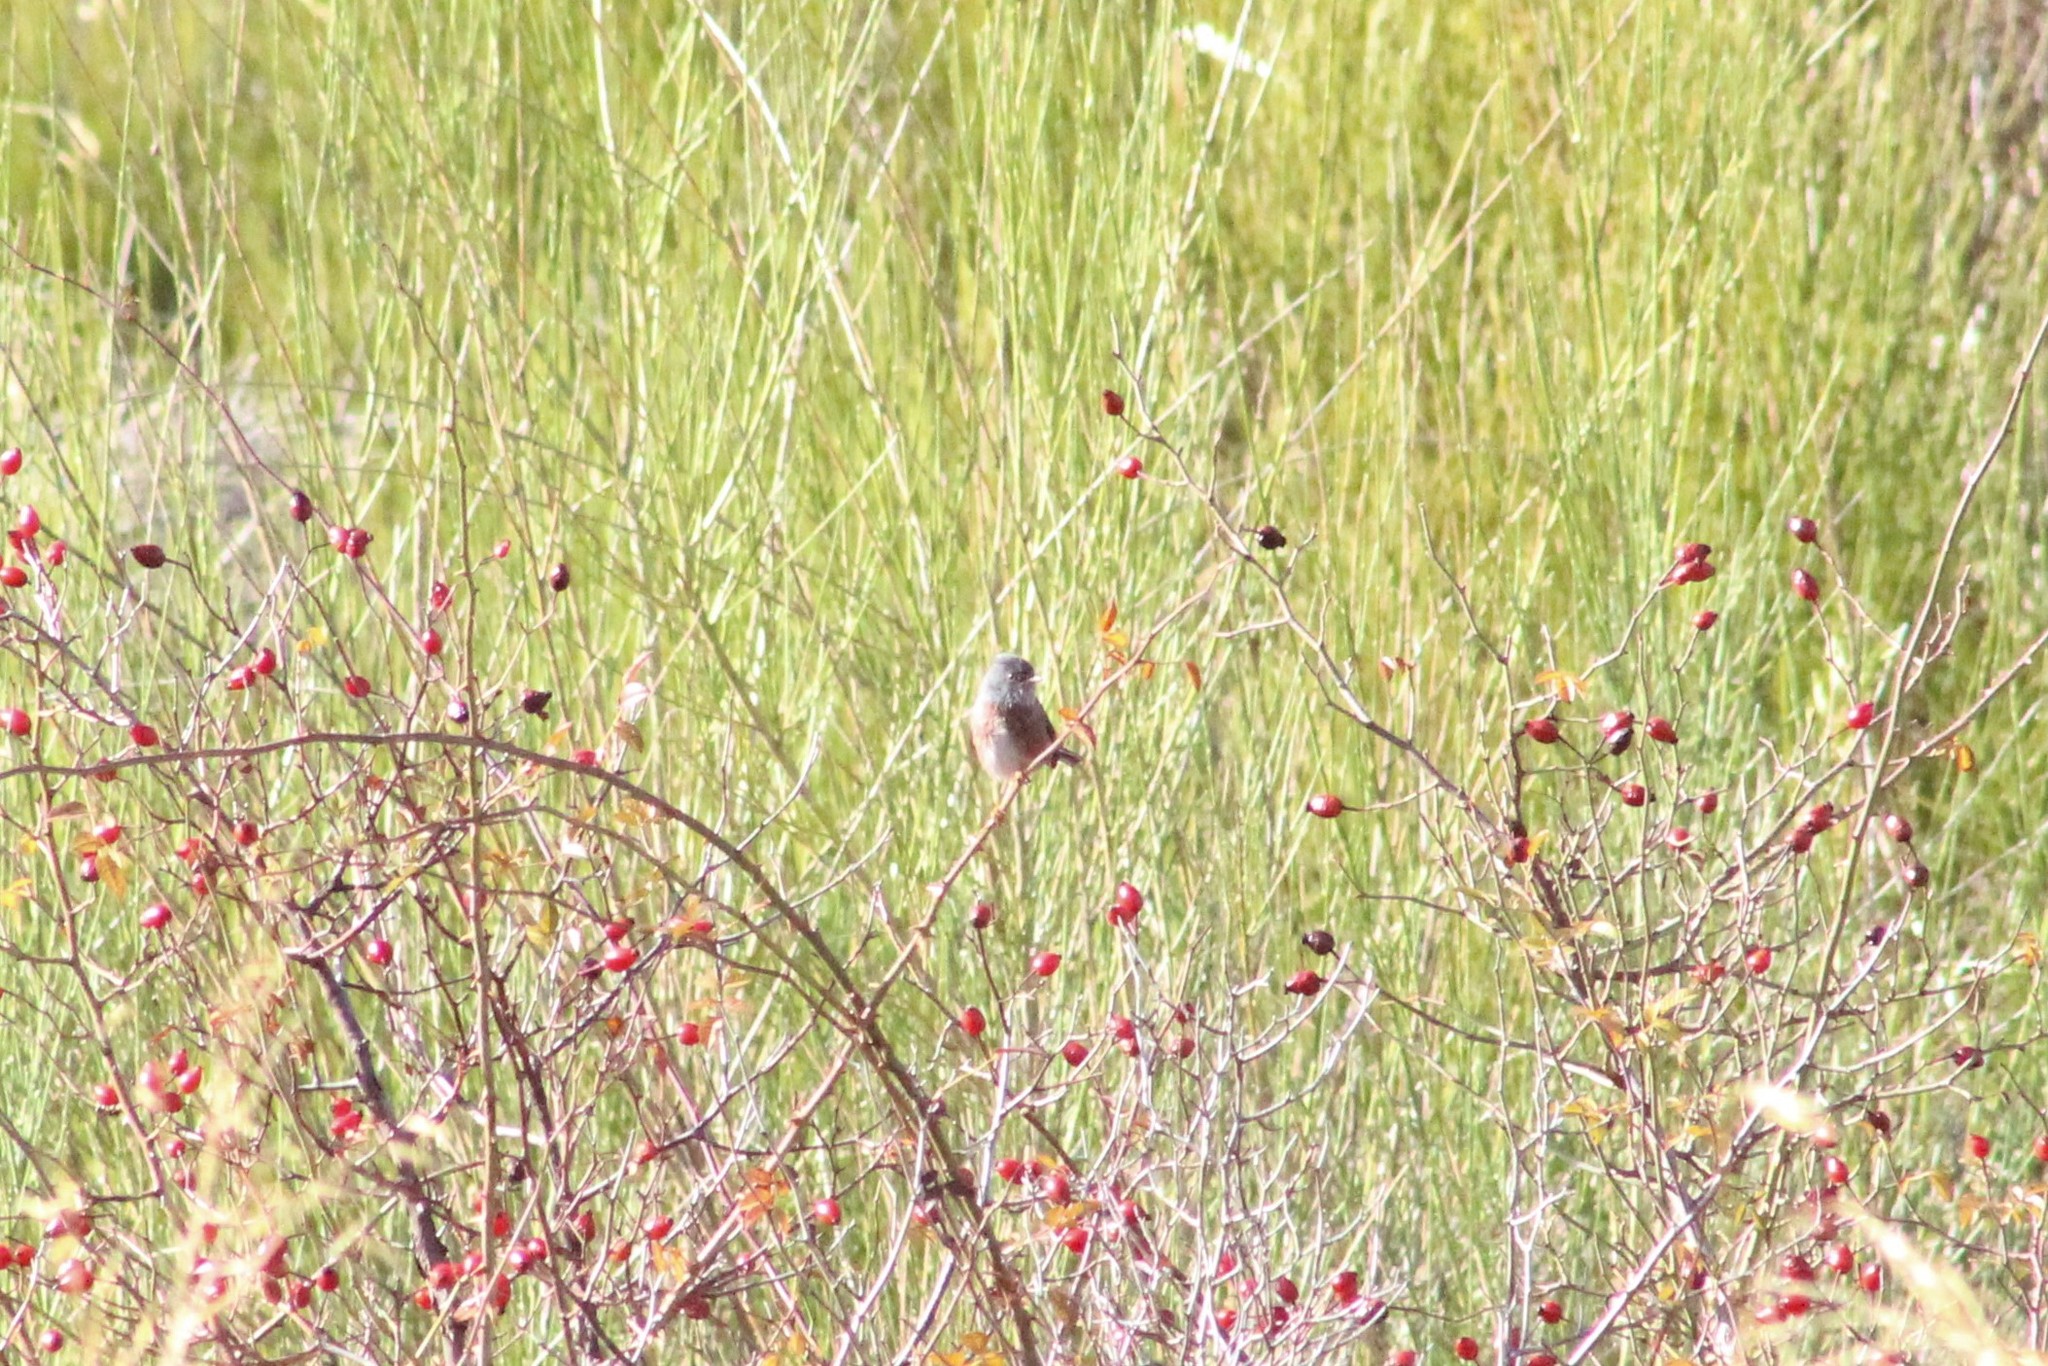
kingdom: Animalia
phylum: Chordata
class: Aves
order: Passeriformes
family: Sylviidae
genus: Sylvia
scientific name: Sylvia undata
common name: Dartford warbler
